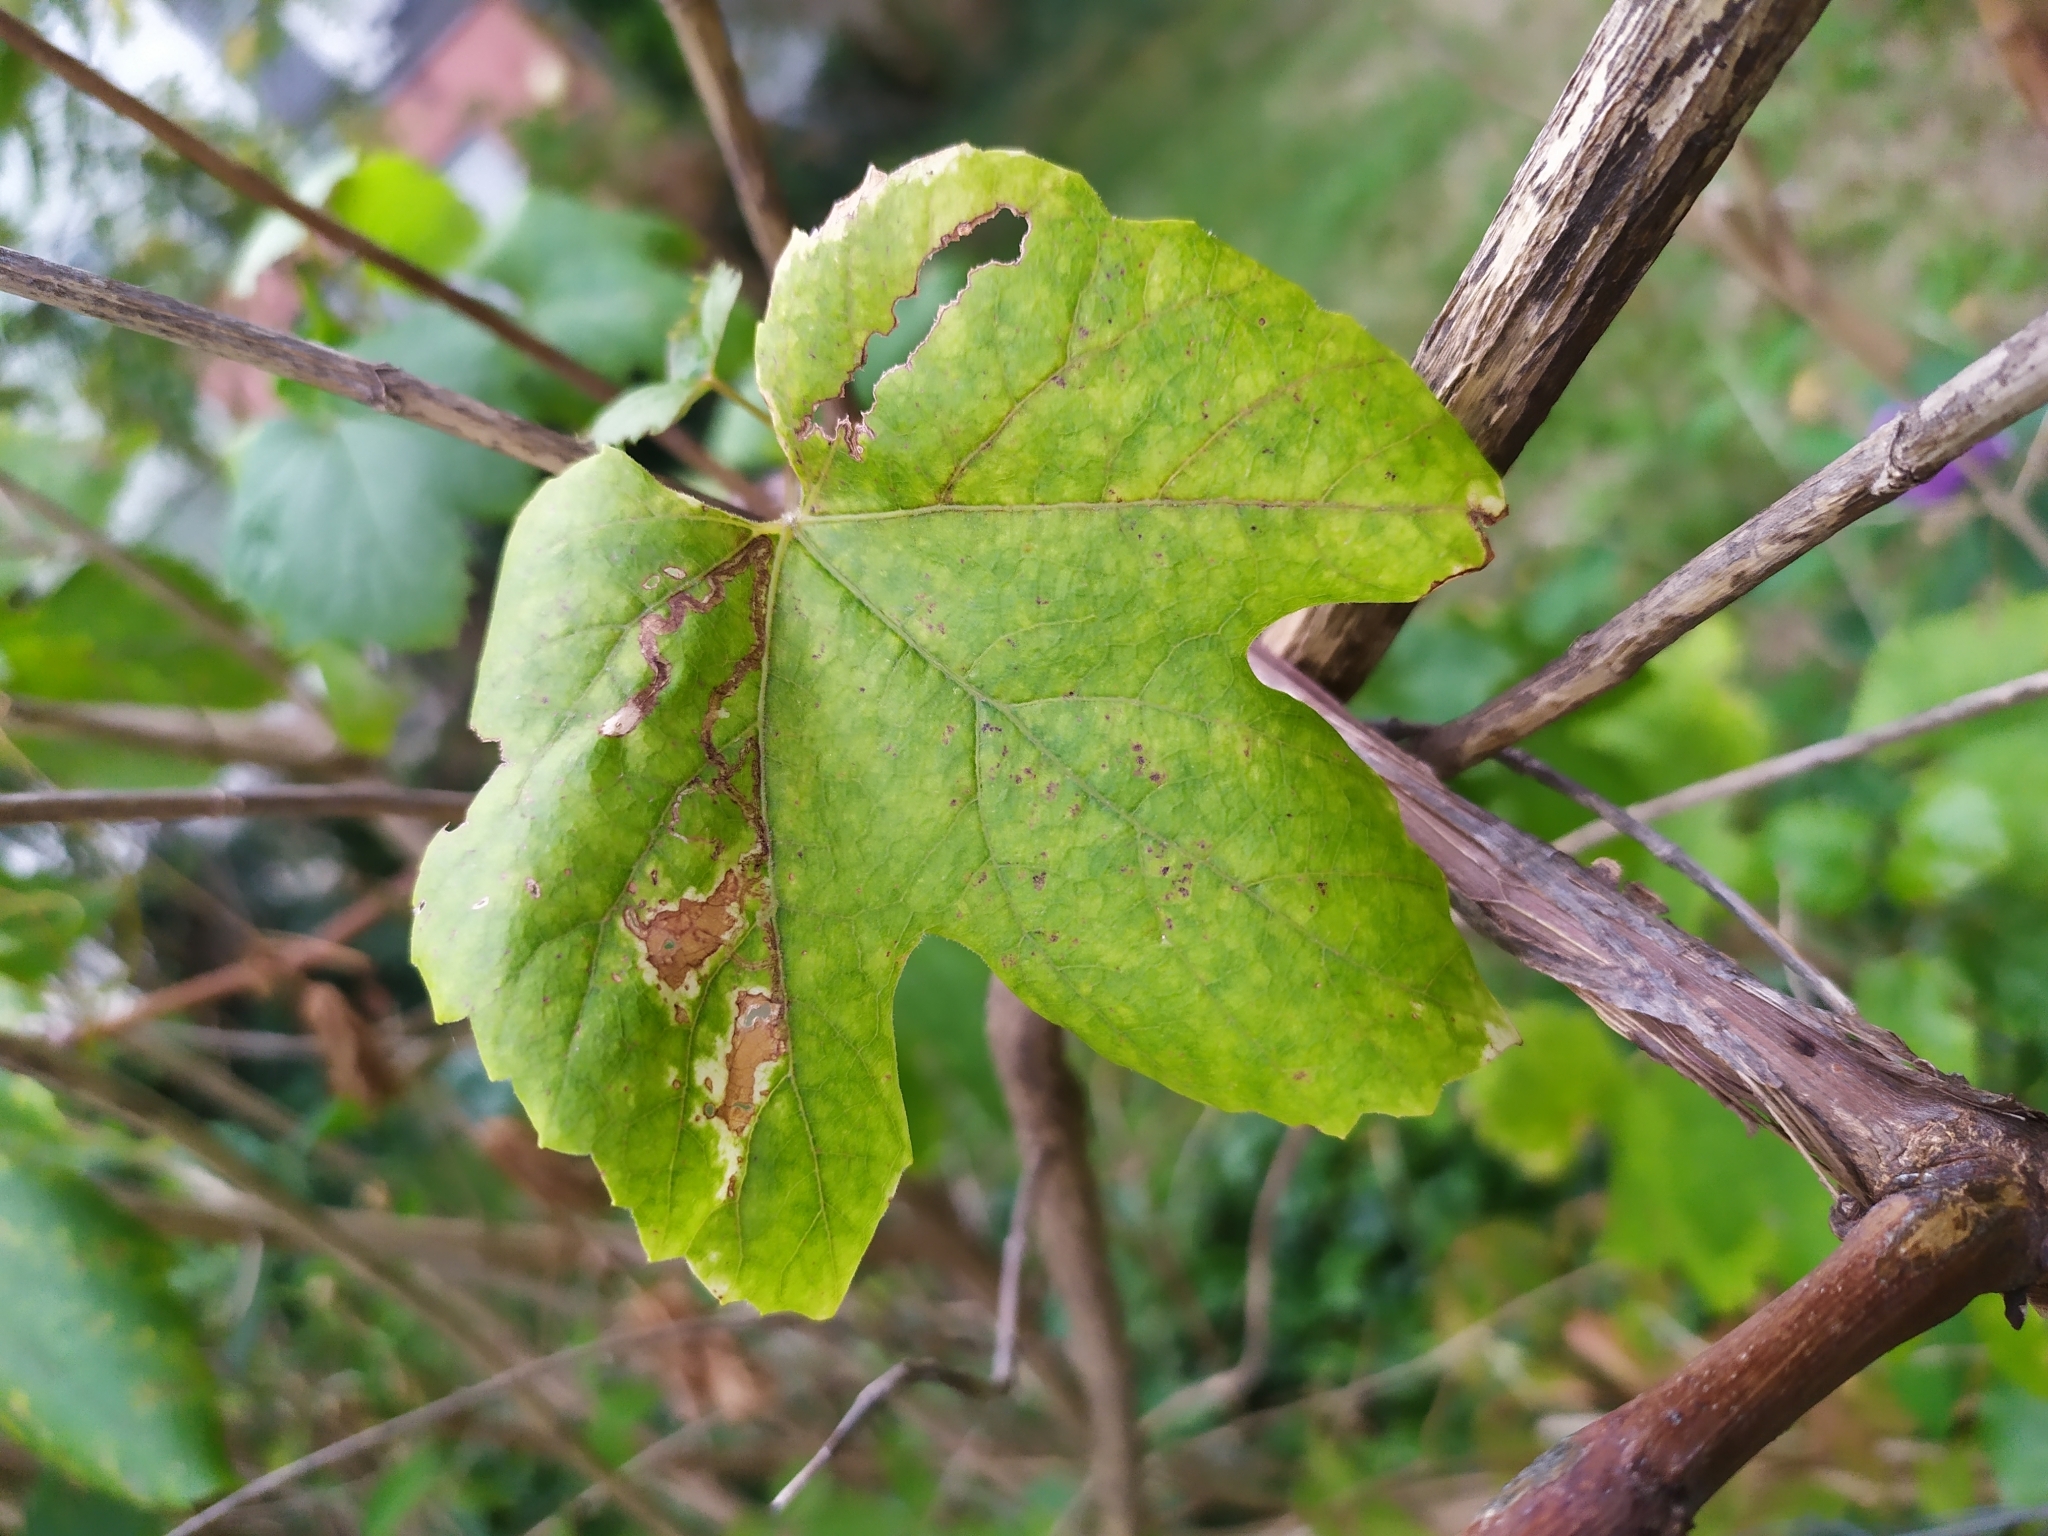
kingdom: Animalia
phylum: Arthropoda
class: Insecta
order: Lepidoptera
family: Gracillariidae
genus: Phyllocnistis
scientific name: Phyllocnistis vitegenella
